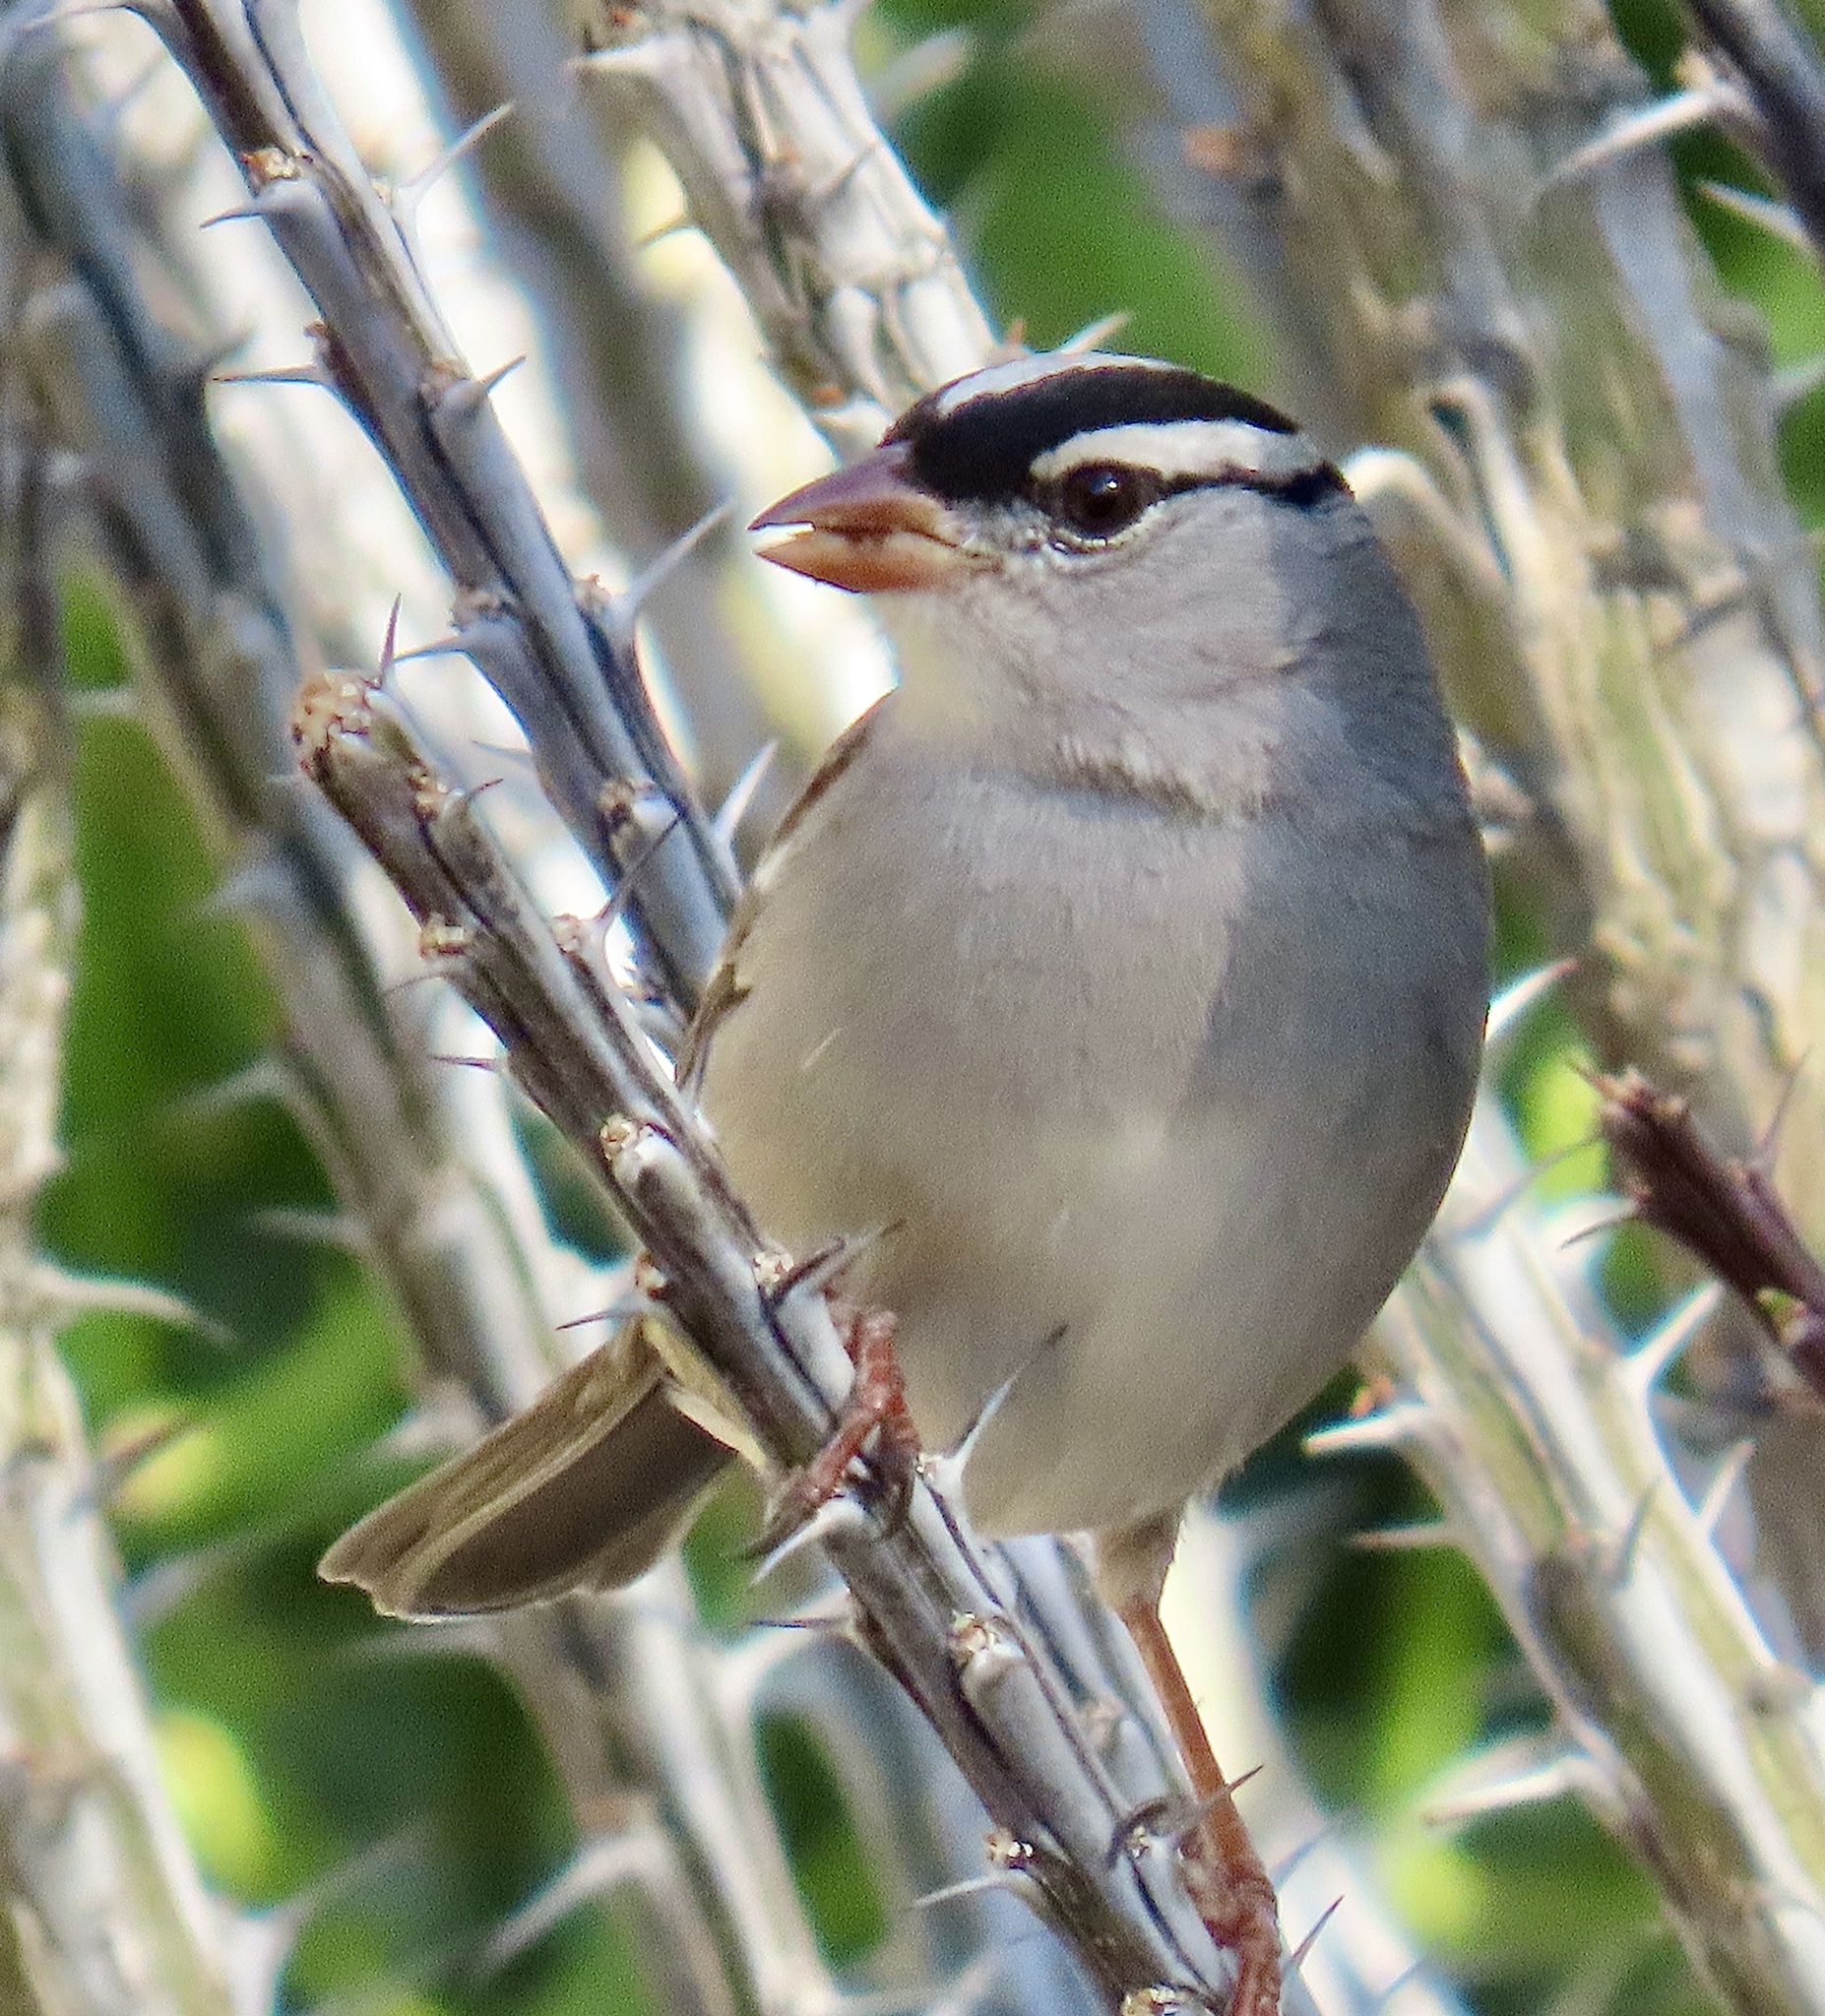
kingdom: Animalia
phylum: Chordata
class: Aves
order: Passeriformes
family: Passerellidae
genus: Zonotrichia
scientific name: Zonotrichia leucophrys
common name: White-crowned sparrow
